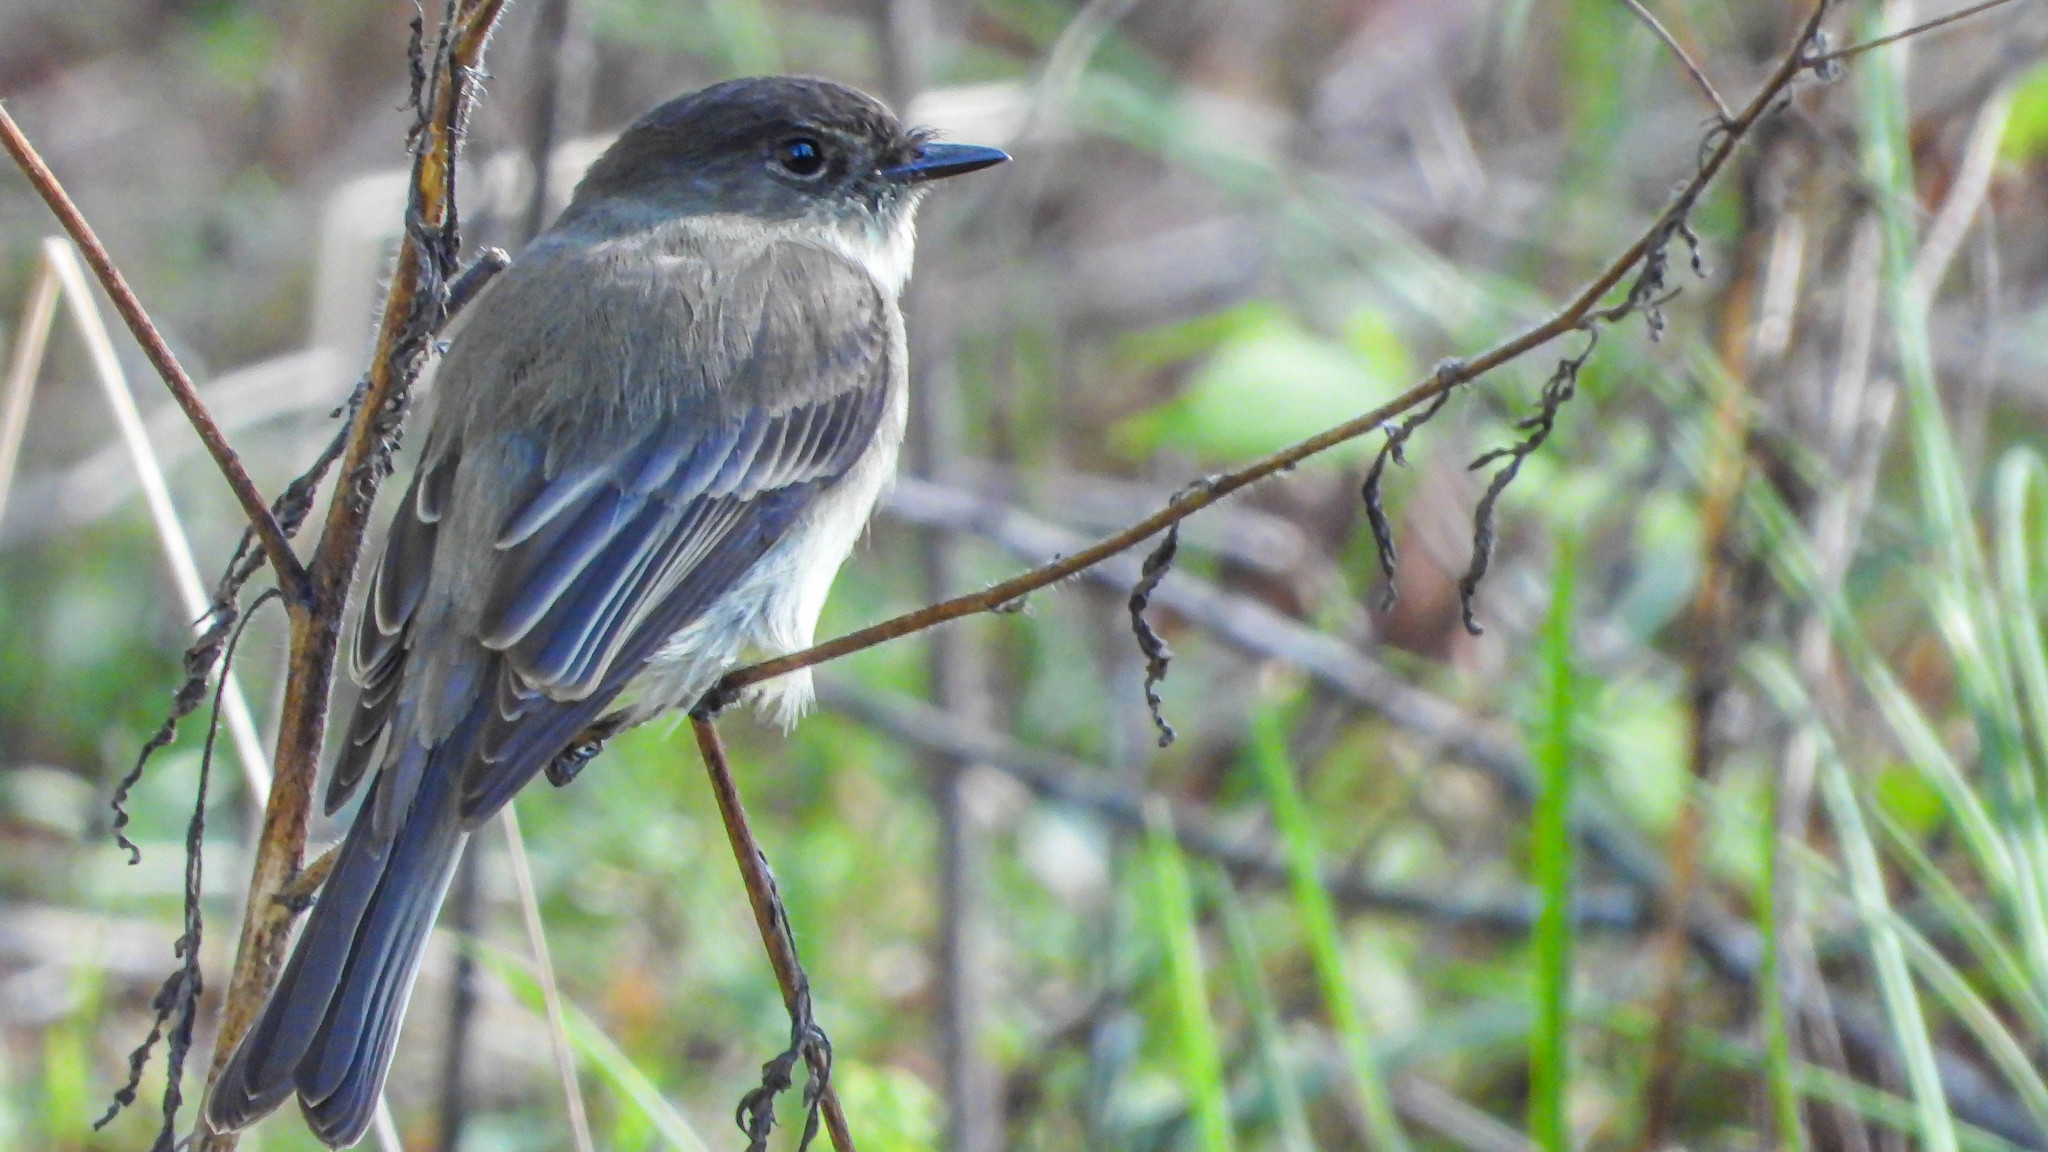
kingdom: Animalia
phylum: Chordata
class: Aves
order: Passeriformes
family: Tyrannidae
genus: Sayornis
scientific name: Sayornis phoebe
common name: Eastern phoebe
